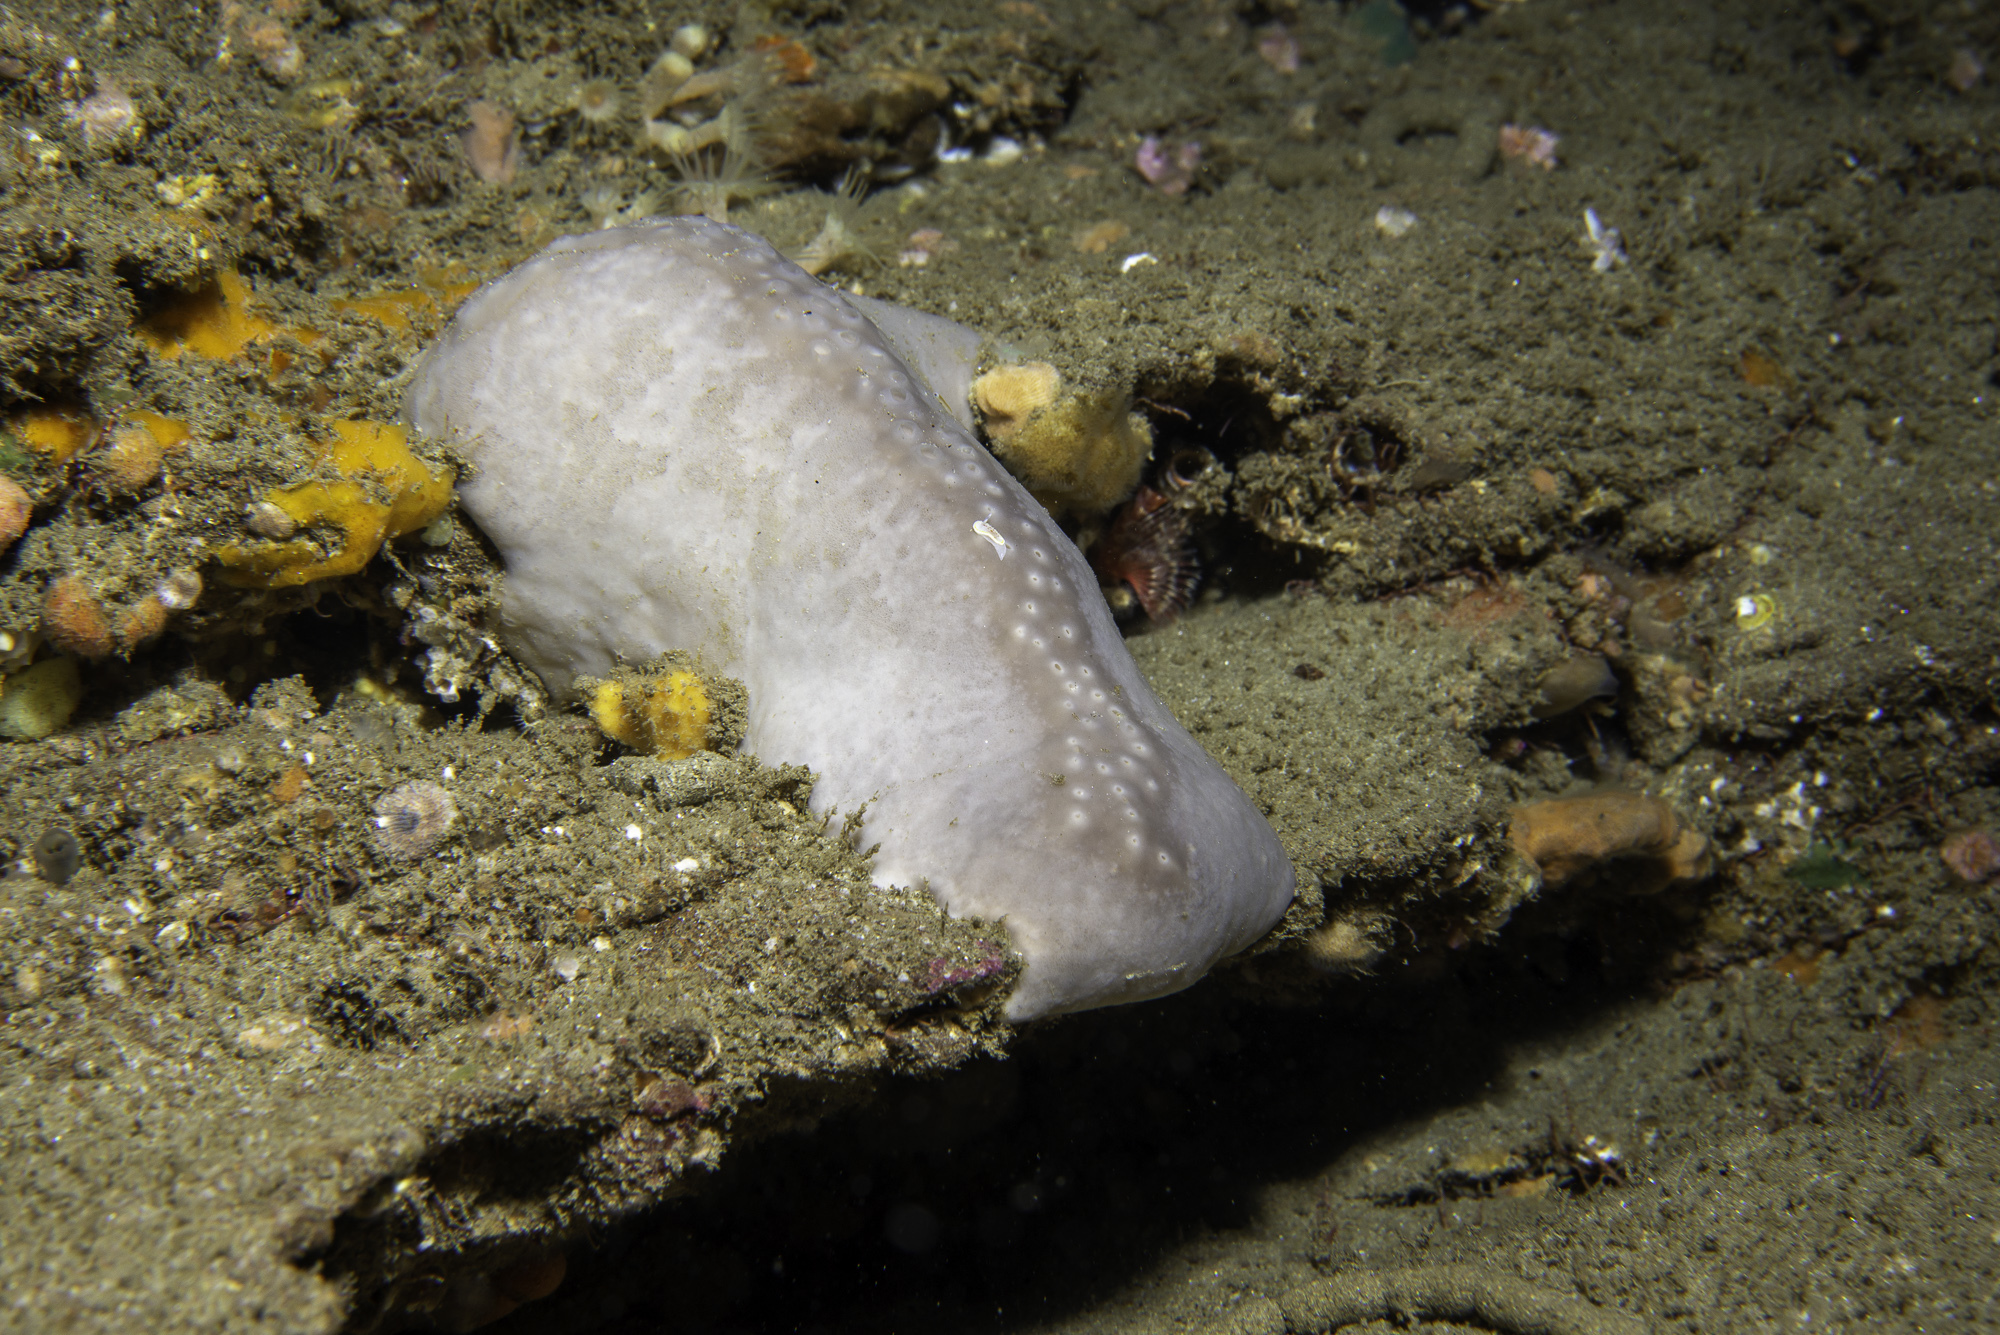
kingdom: Animalia
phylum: Porifera
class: Demospongiae
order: Tetractinellida
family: Geodiidae
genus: Pachymatisma
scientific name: Pachymatisma johnstonia
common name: Elephant ear sponge
